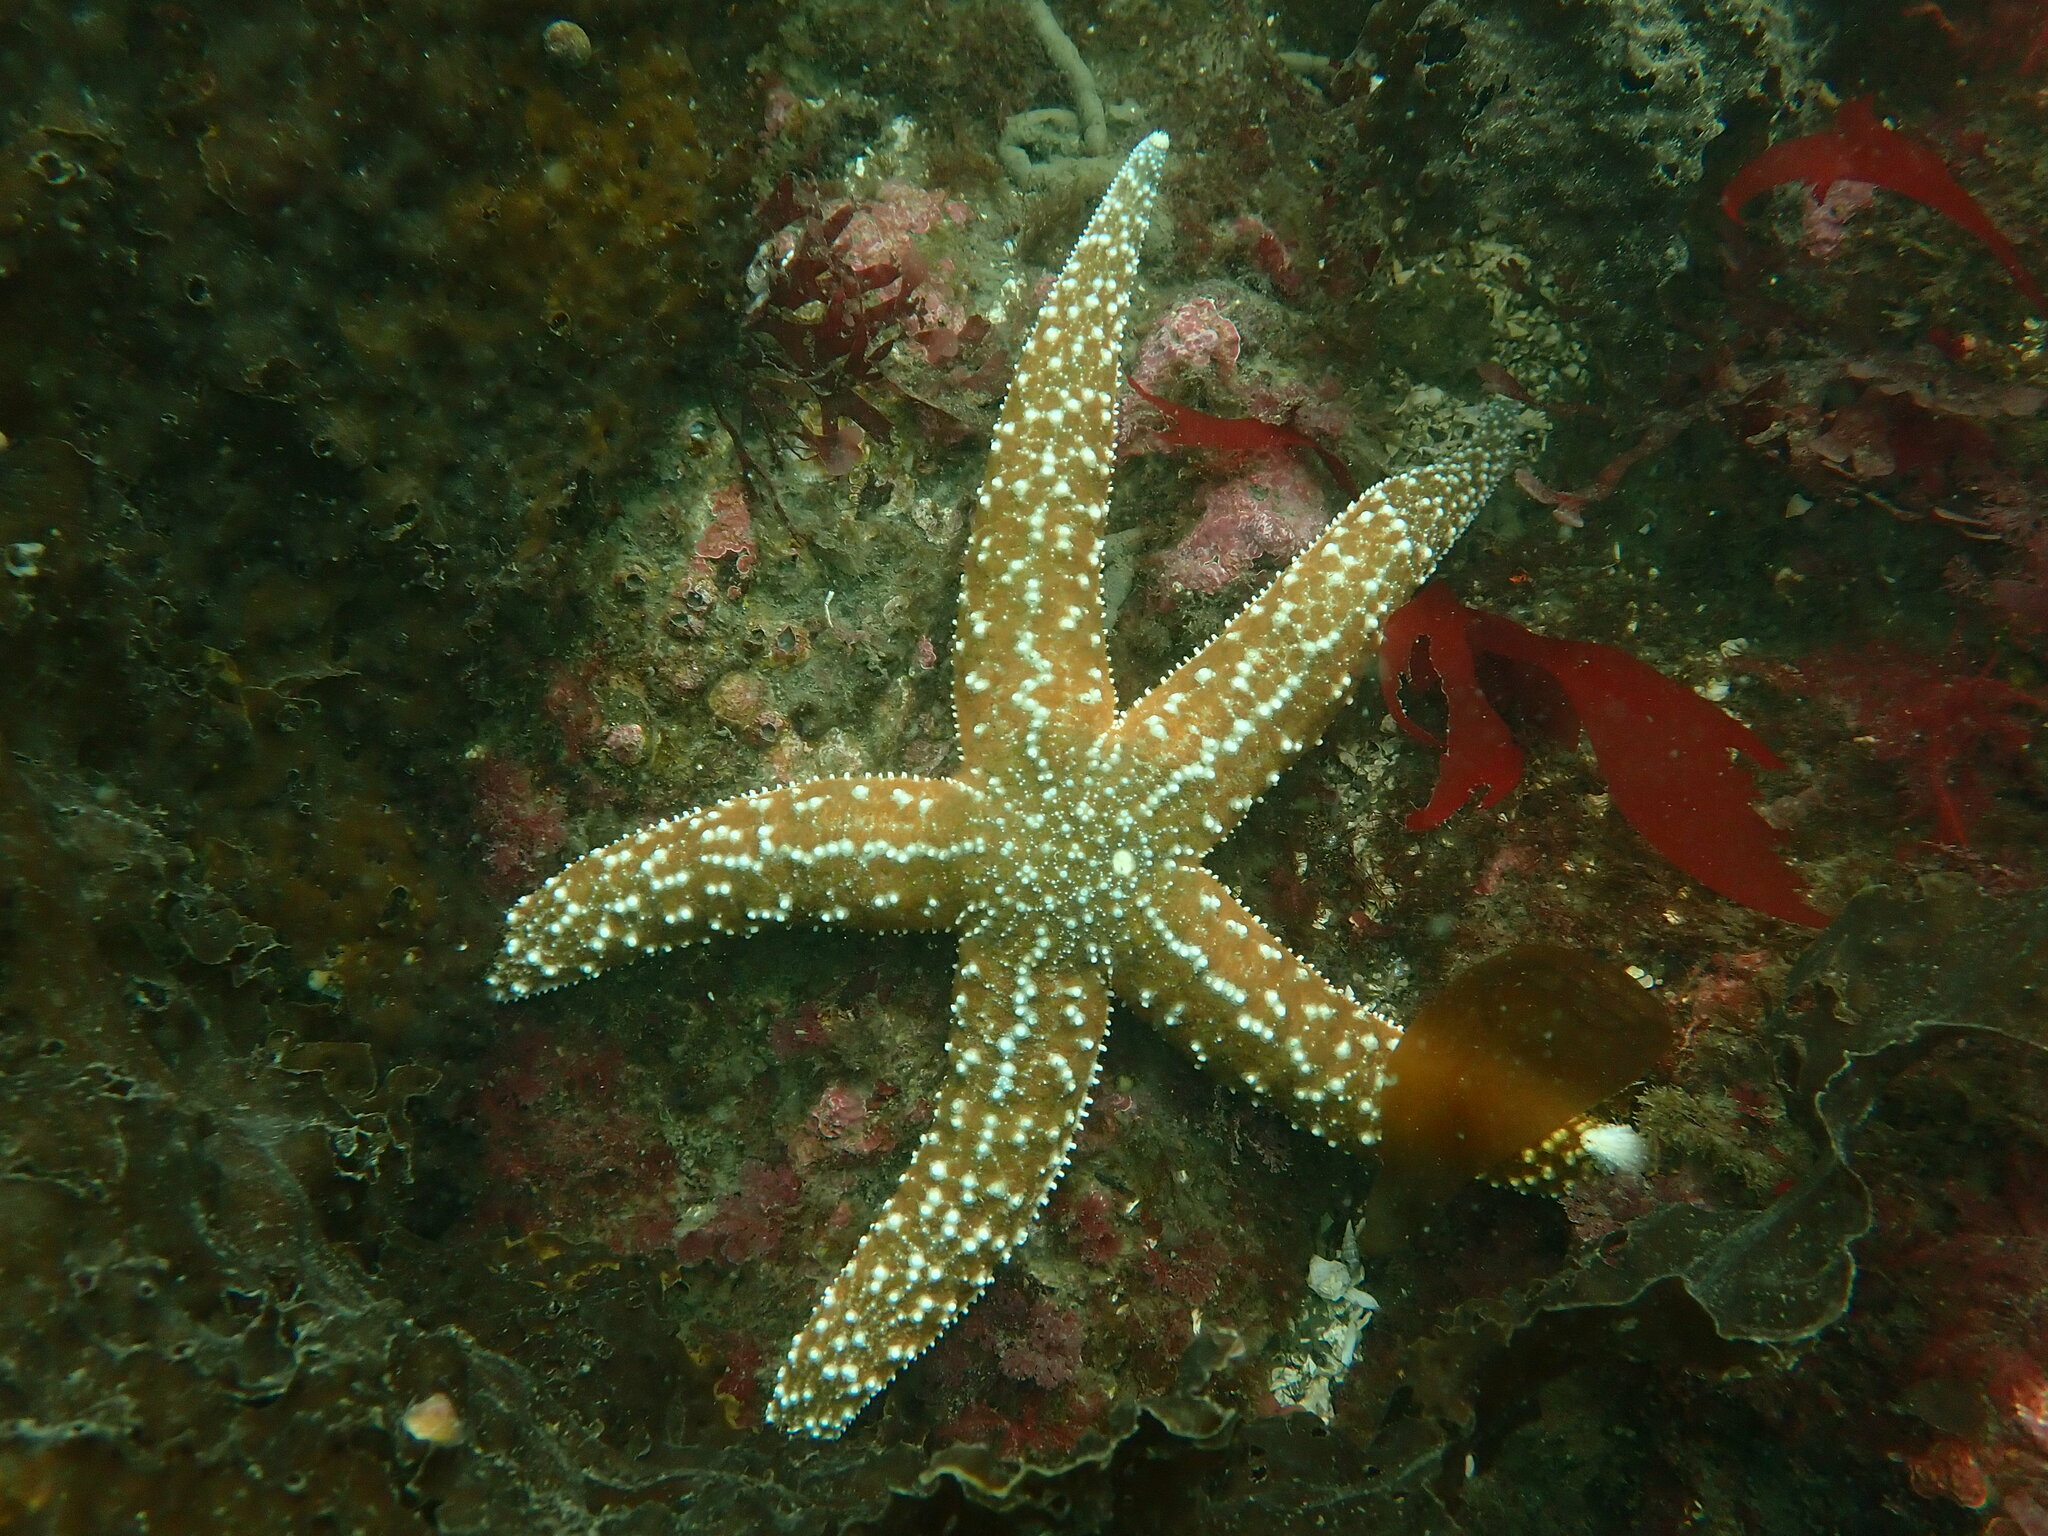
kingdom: Animalia
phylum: Echinodermata
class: Asteroidea
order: Forcipulatida
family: Asteriidae
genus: Evasterias
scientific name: Evasterias troschelii
